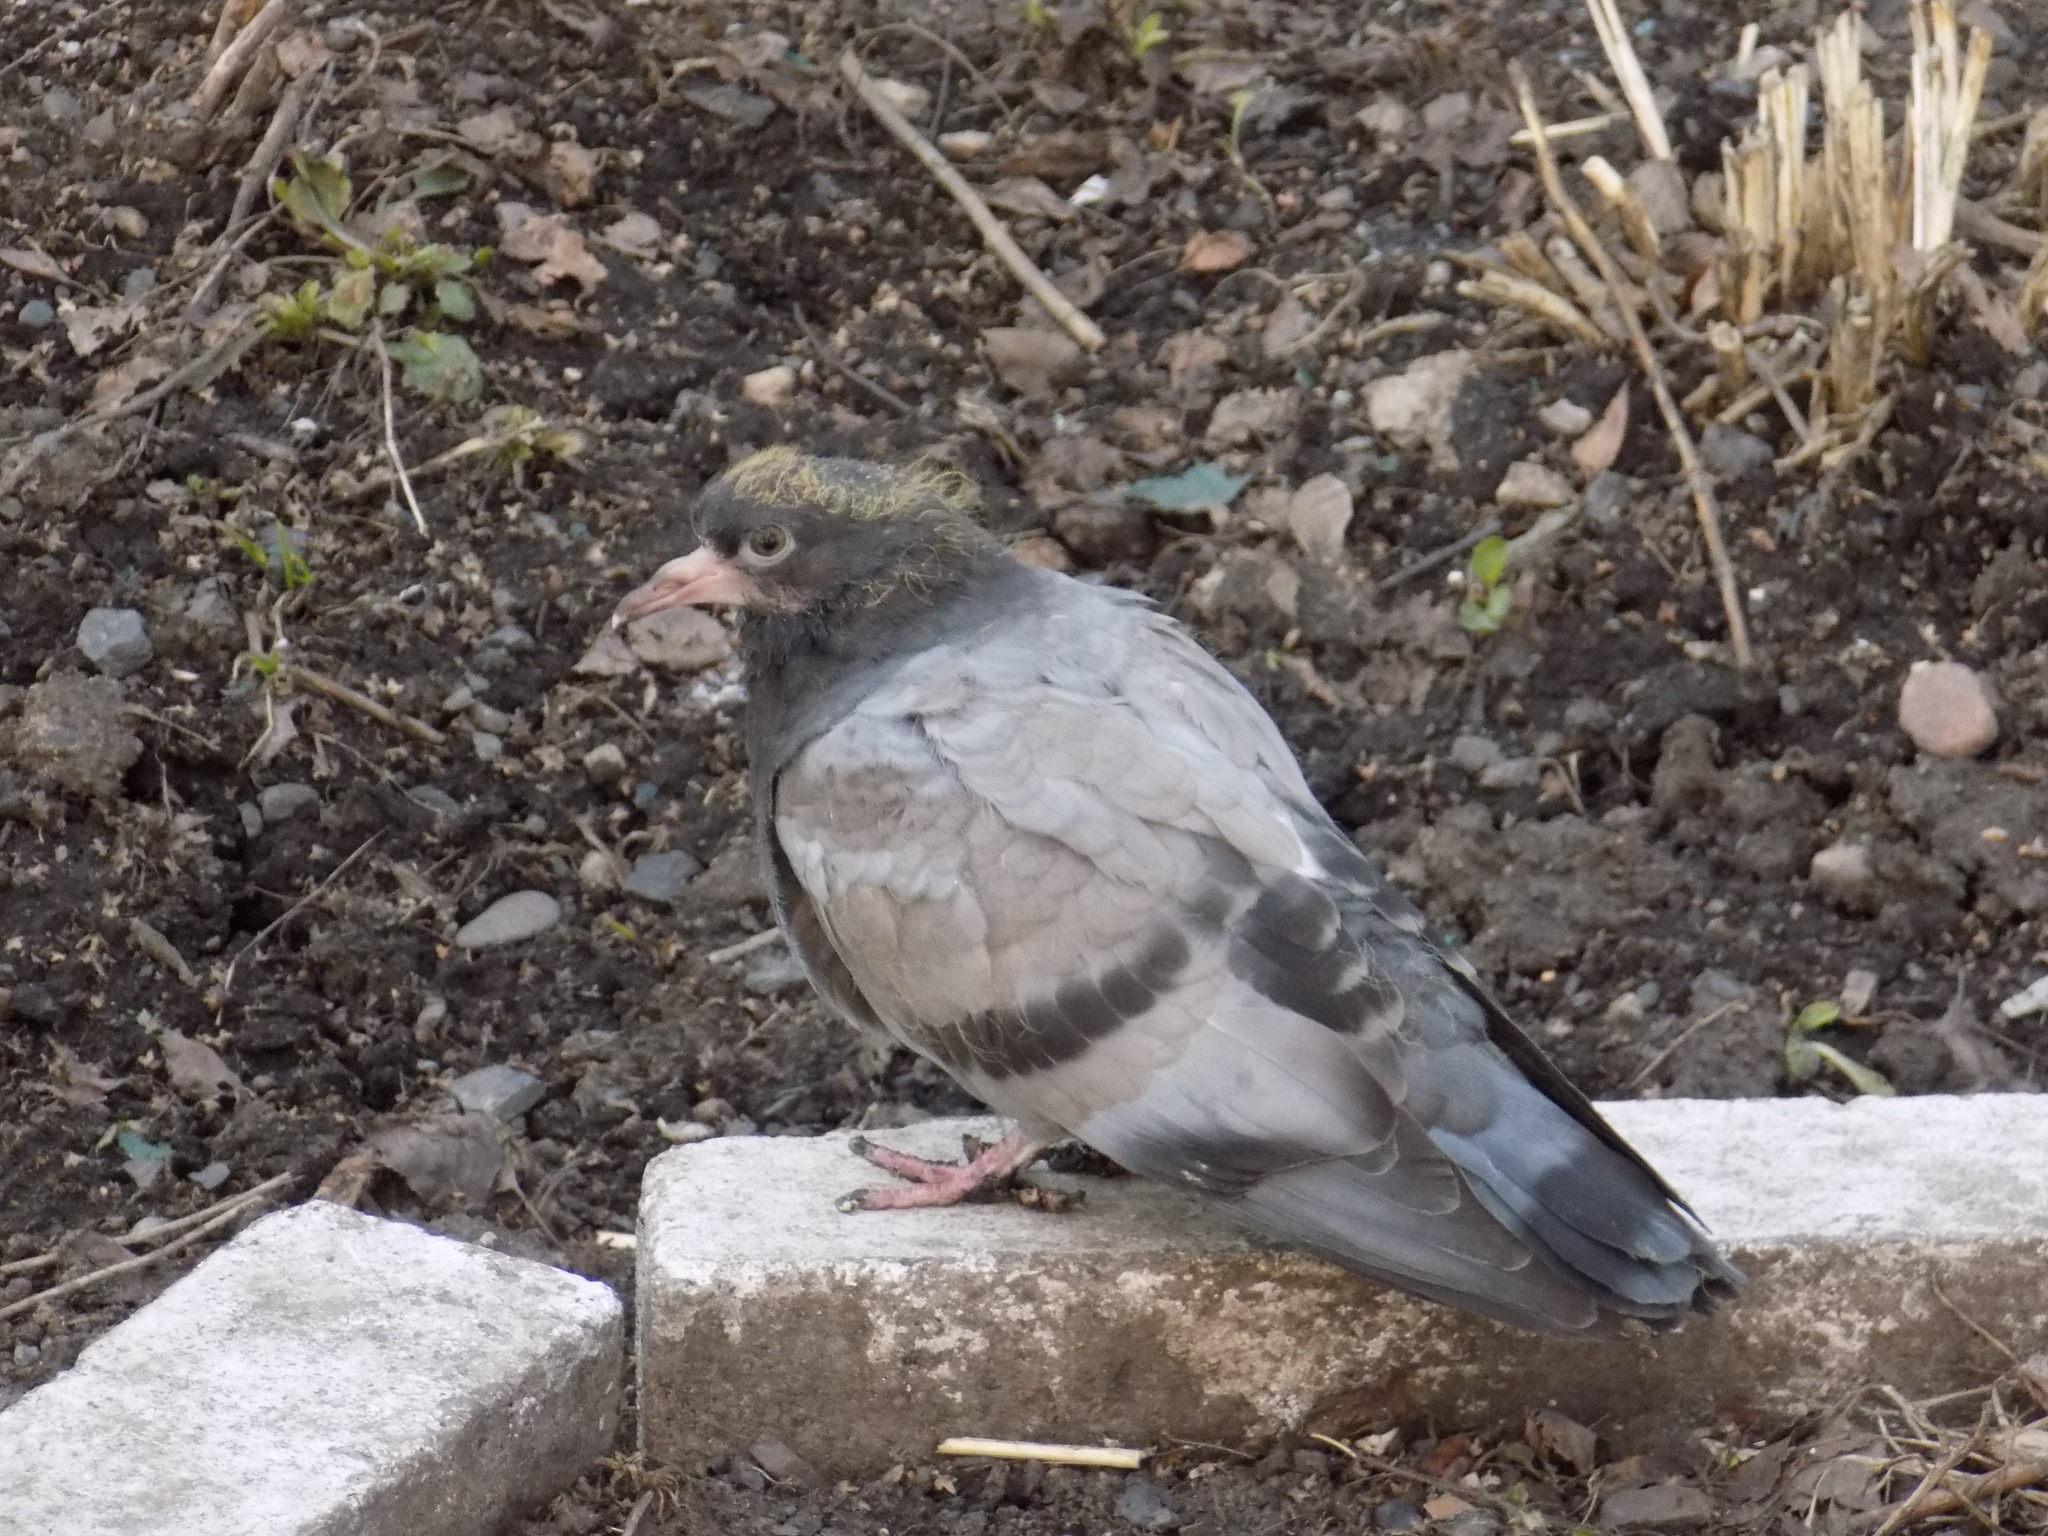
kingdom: Animalia
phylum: Chordata
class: Aves
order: Columbiformes
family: Columbidae
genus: Columba
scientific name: Columba livia
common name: Rock pigeon
